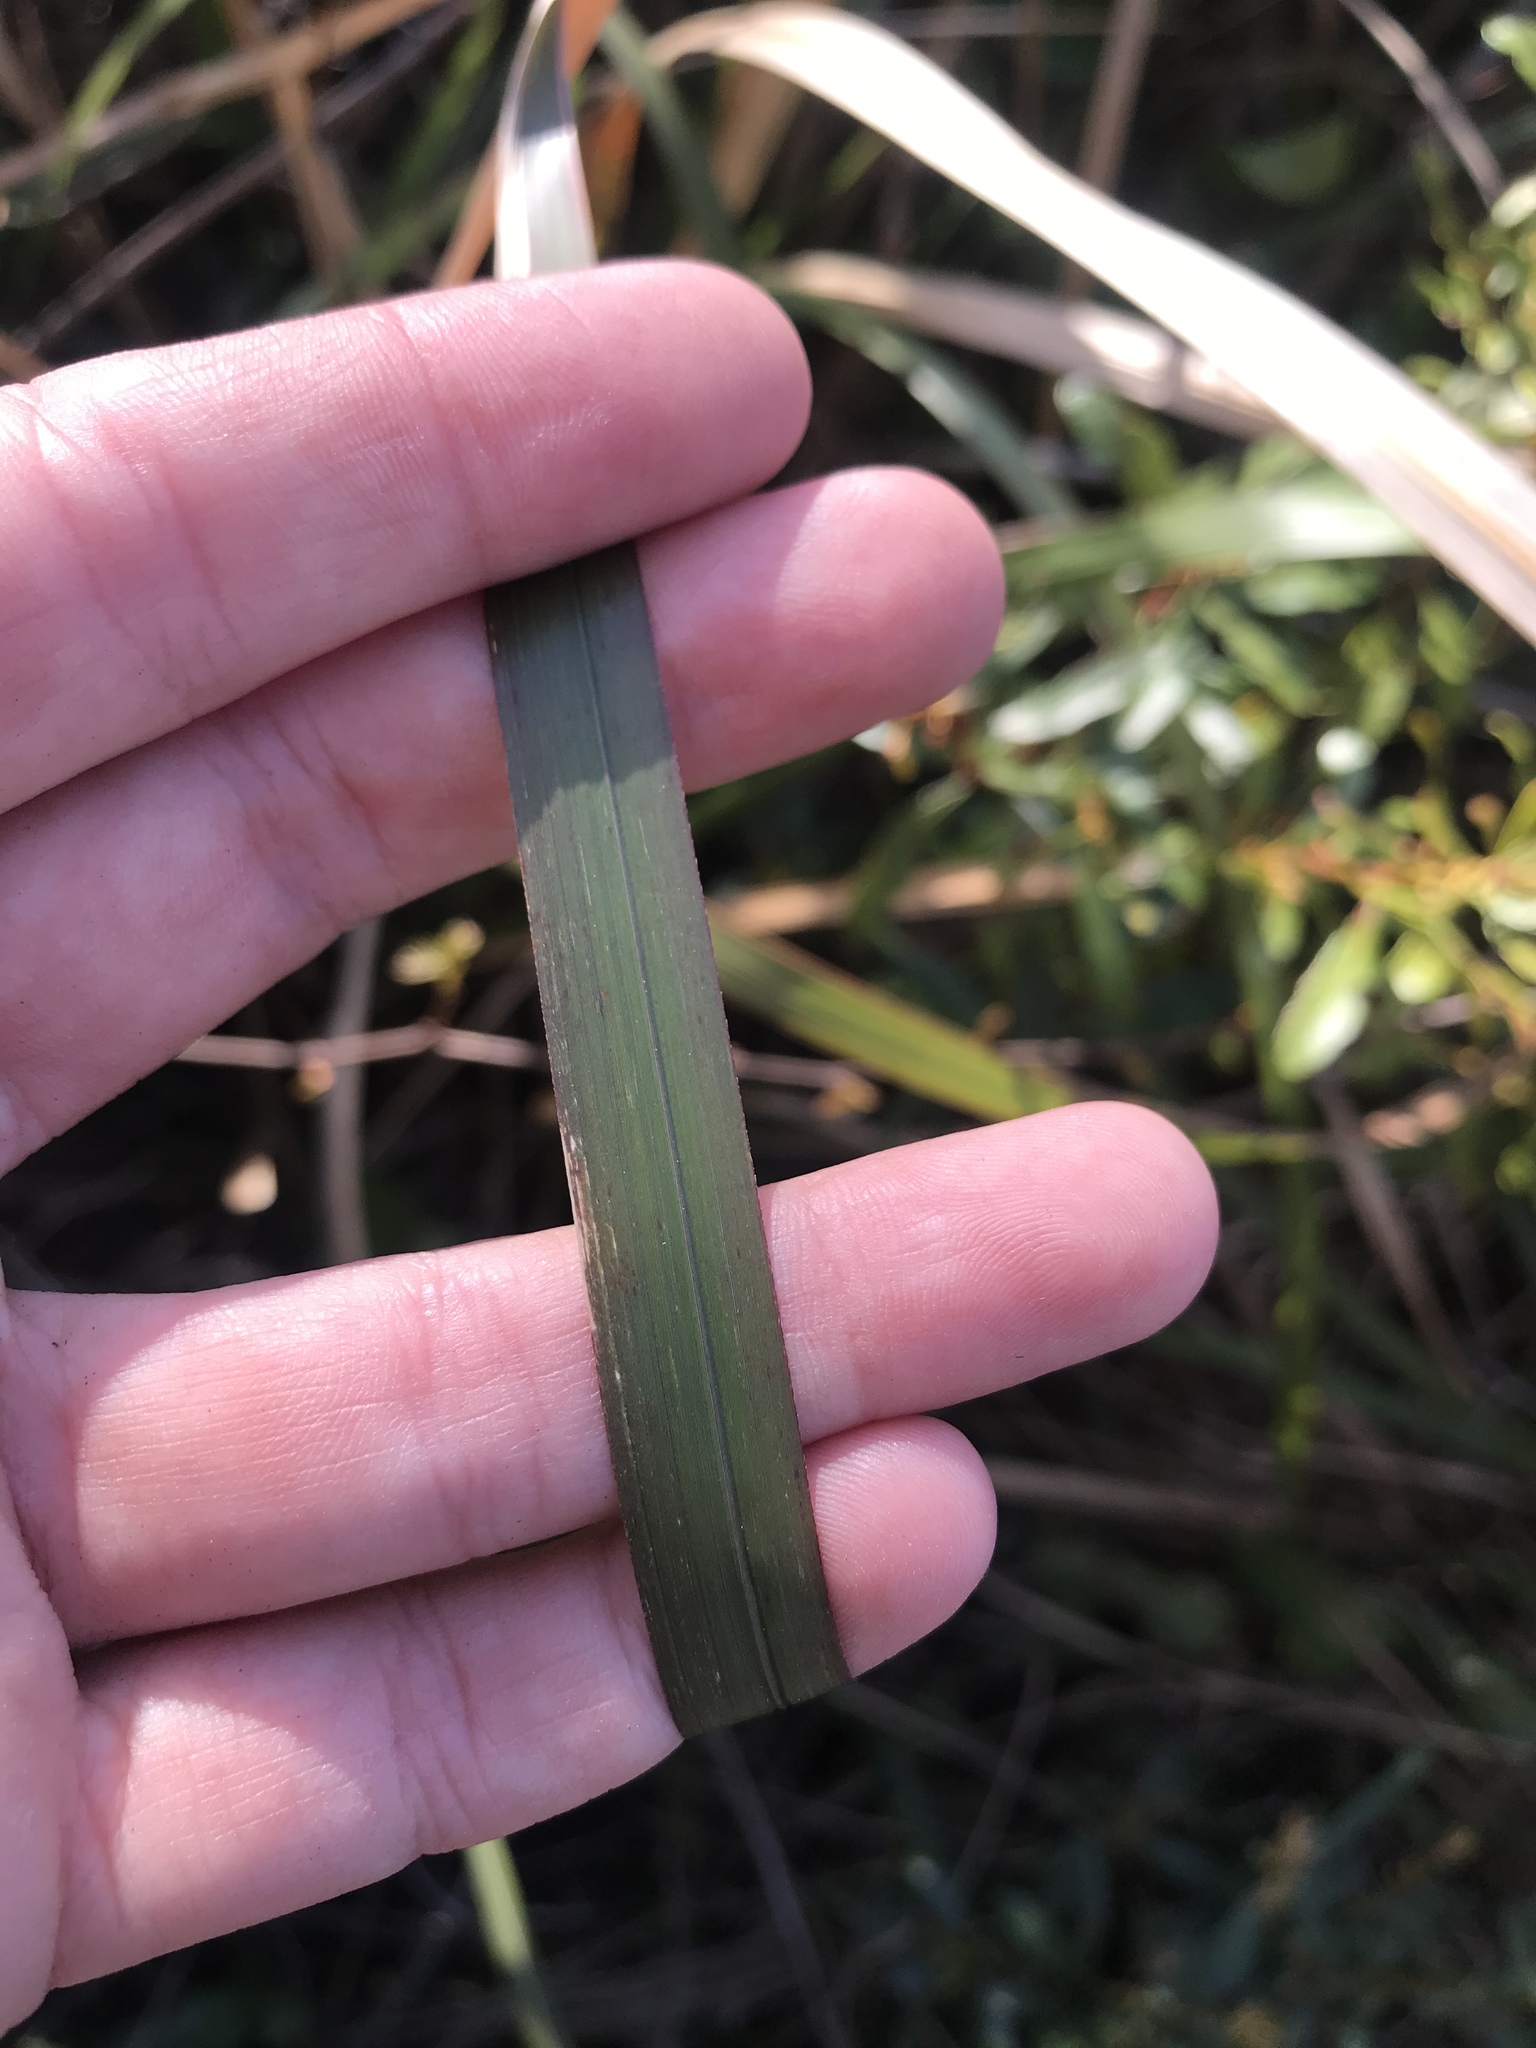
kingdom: Plantae
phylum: Tracheophyta
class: Liliopsida
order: Poales
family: Poaceae
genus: Imperata
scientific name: Imperata cylindrica
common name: Cogongrass
